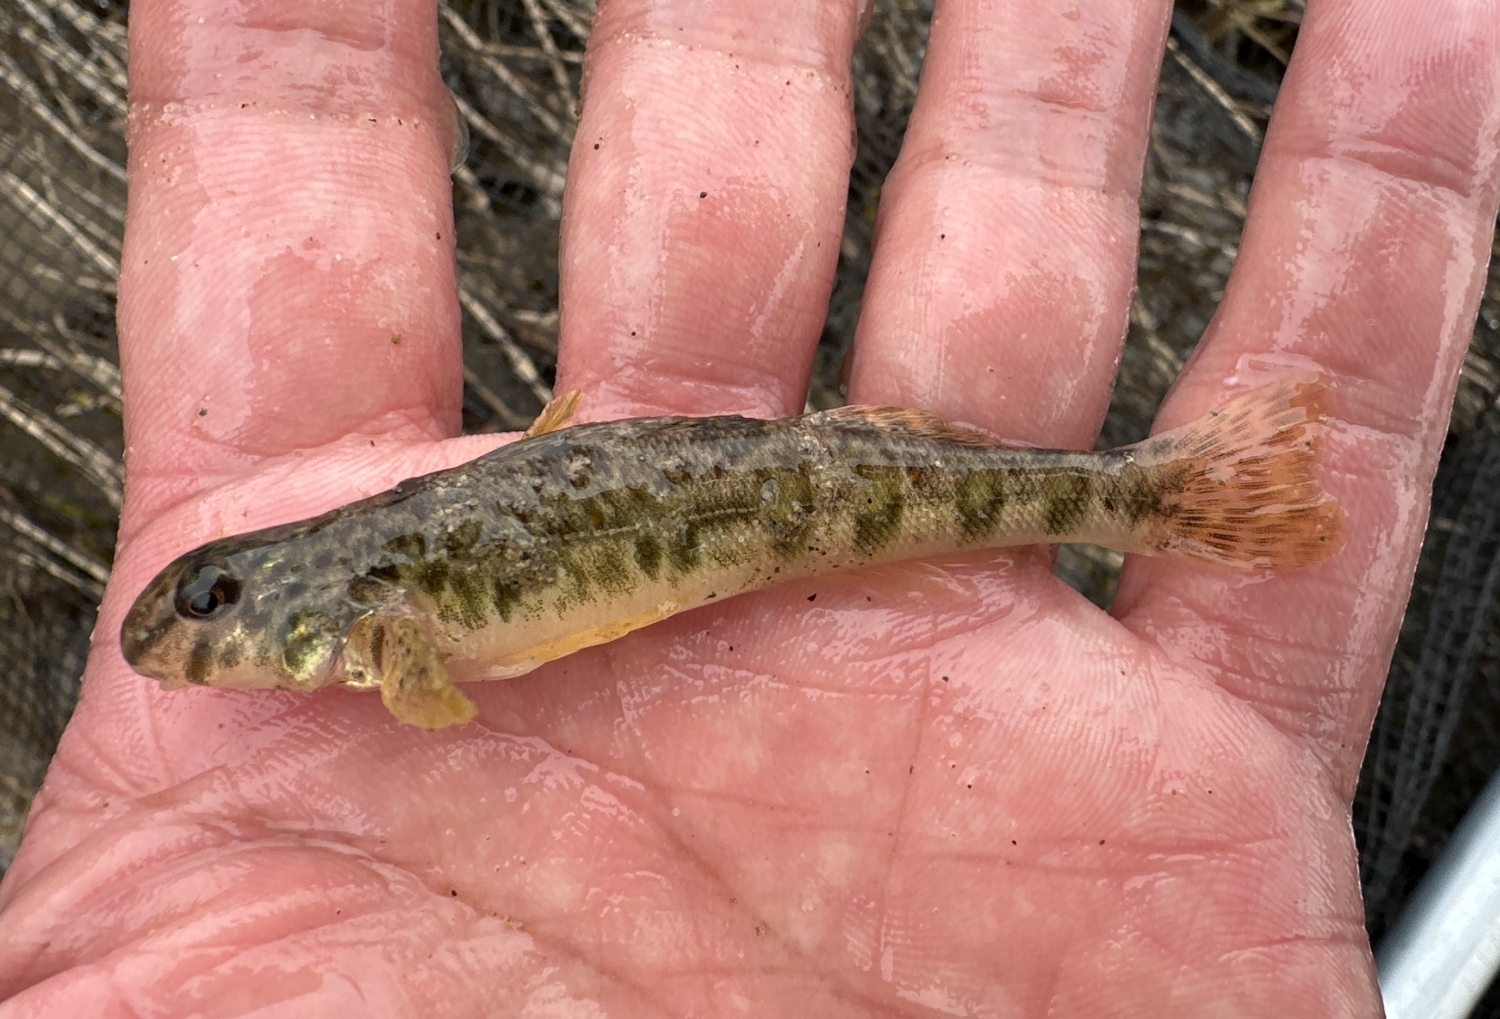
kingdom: Animalia
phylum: Chordata
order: Perciformes
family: Percidae
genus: Etheostoma
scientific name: Etheostoma blennioides
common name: Greenside darter
